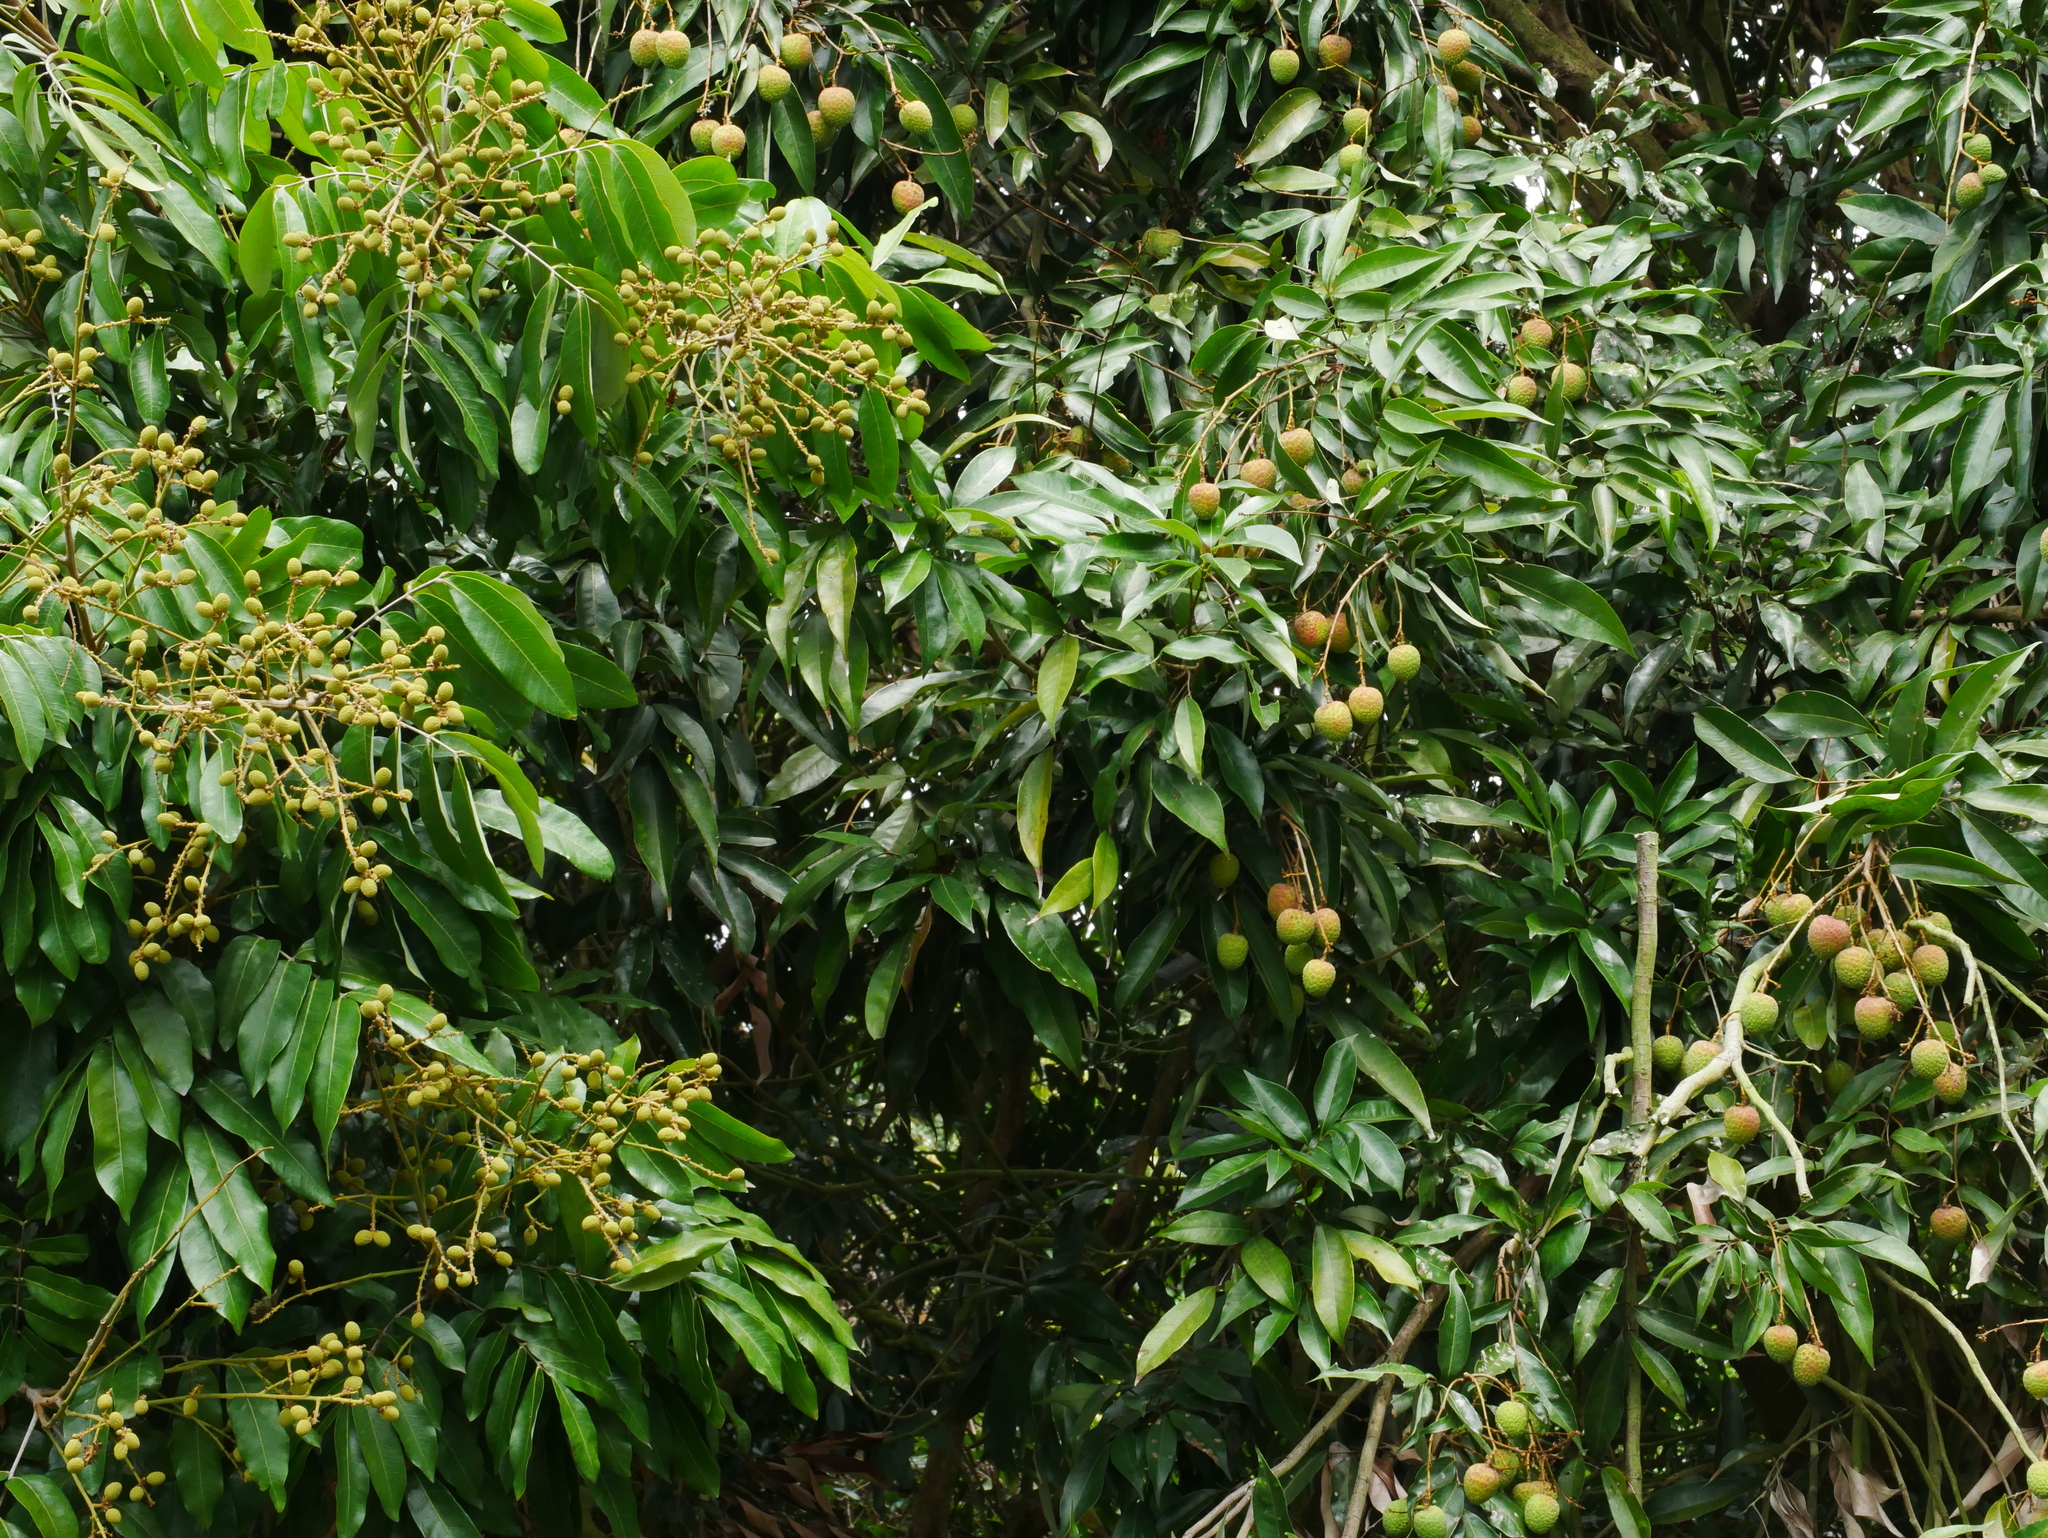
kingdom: Plantae
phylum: Tracheophyta
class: Magnoliopsida
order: Sapindales
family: Sapindaceae
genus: Dimocarpus
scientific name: Dimocarpus longan
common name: Longan
